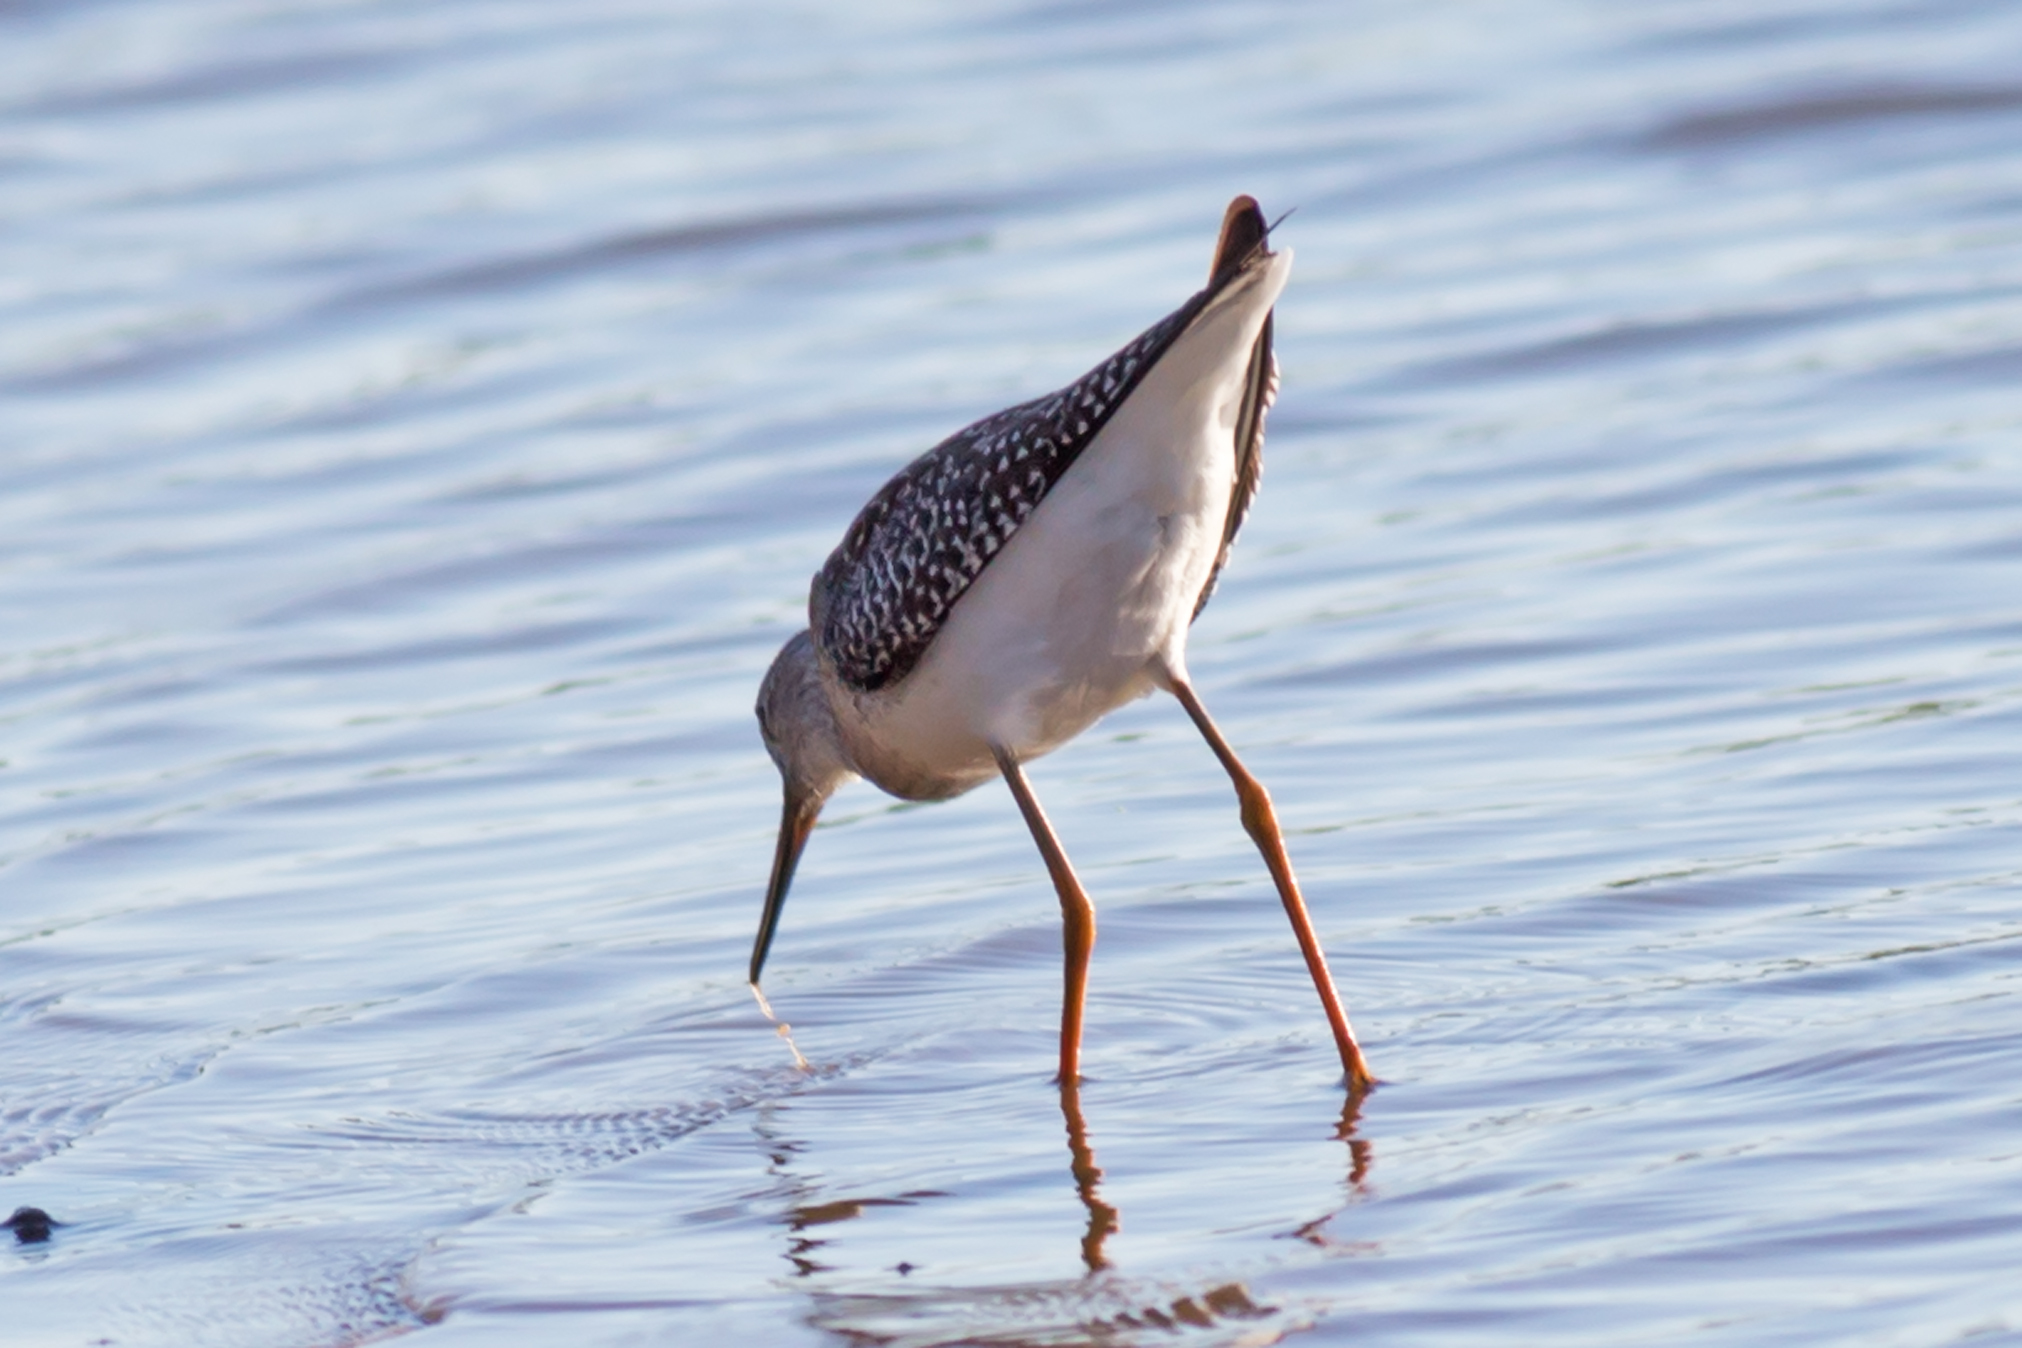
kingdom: Animalia
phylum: Chordata
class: Aves
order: Charadriiformes
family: Scolopacidae
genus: Tringa
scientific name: Tringa flavipes
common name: Lesser yellowlegs
